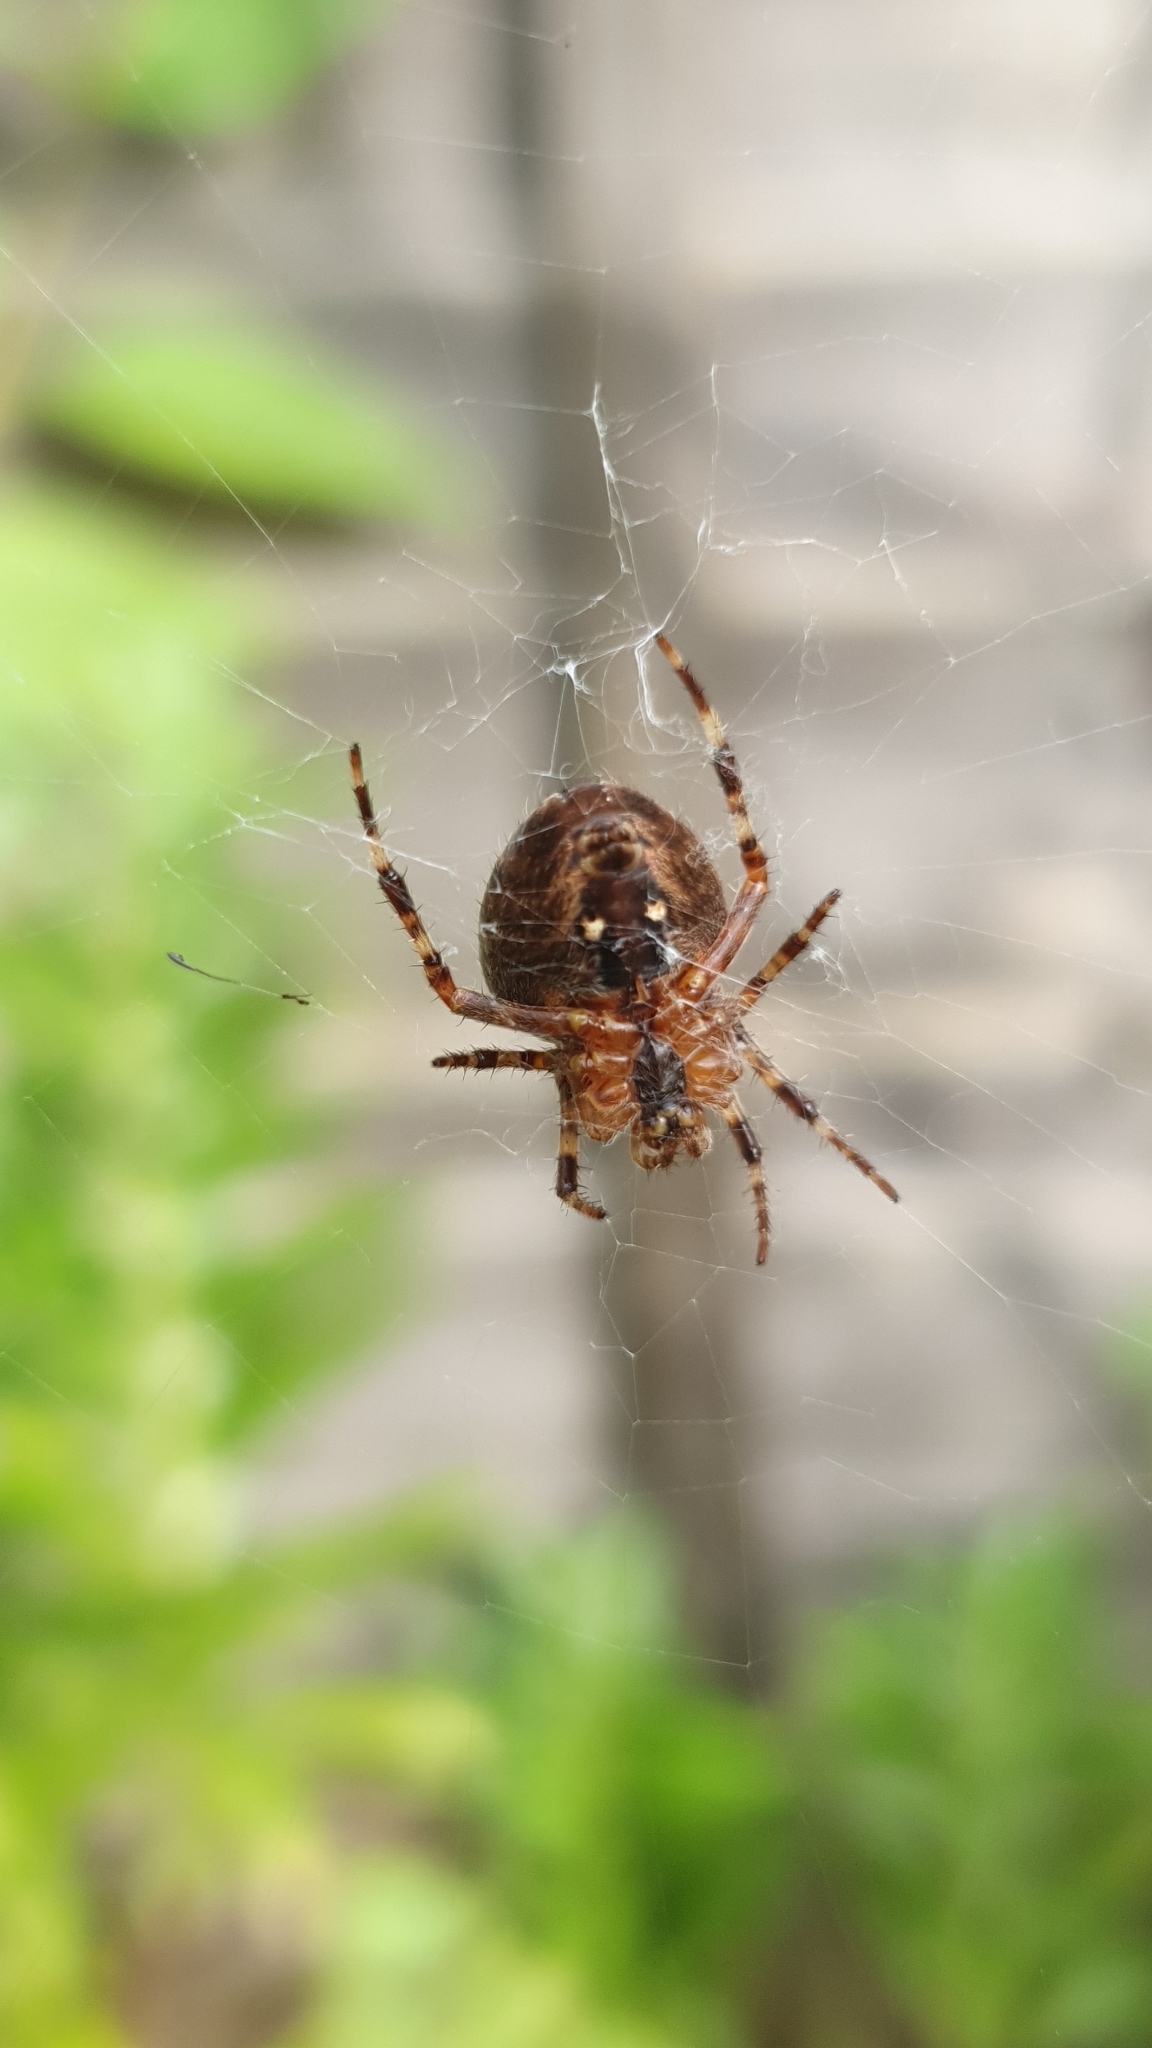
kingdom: Animalia
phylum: Arthropoda
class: Arachnida
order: Araneae
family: Araneidae
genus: Araneus
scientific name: Araneus diadematus
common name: Cross orbweaver
